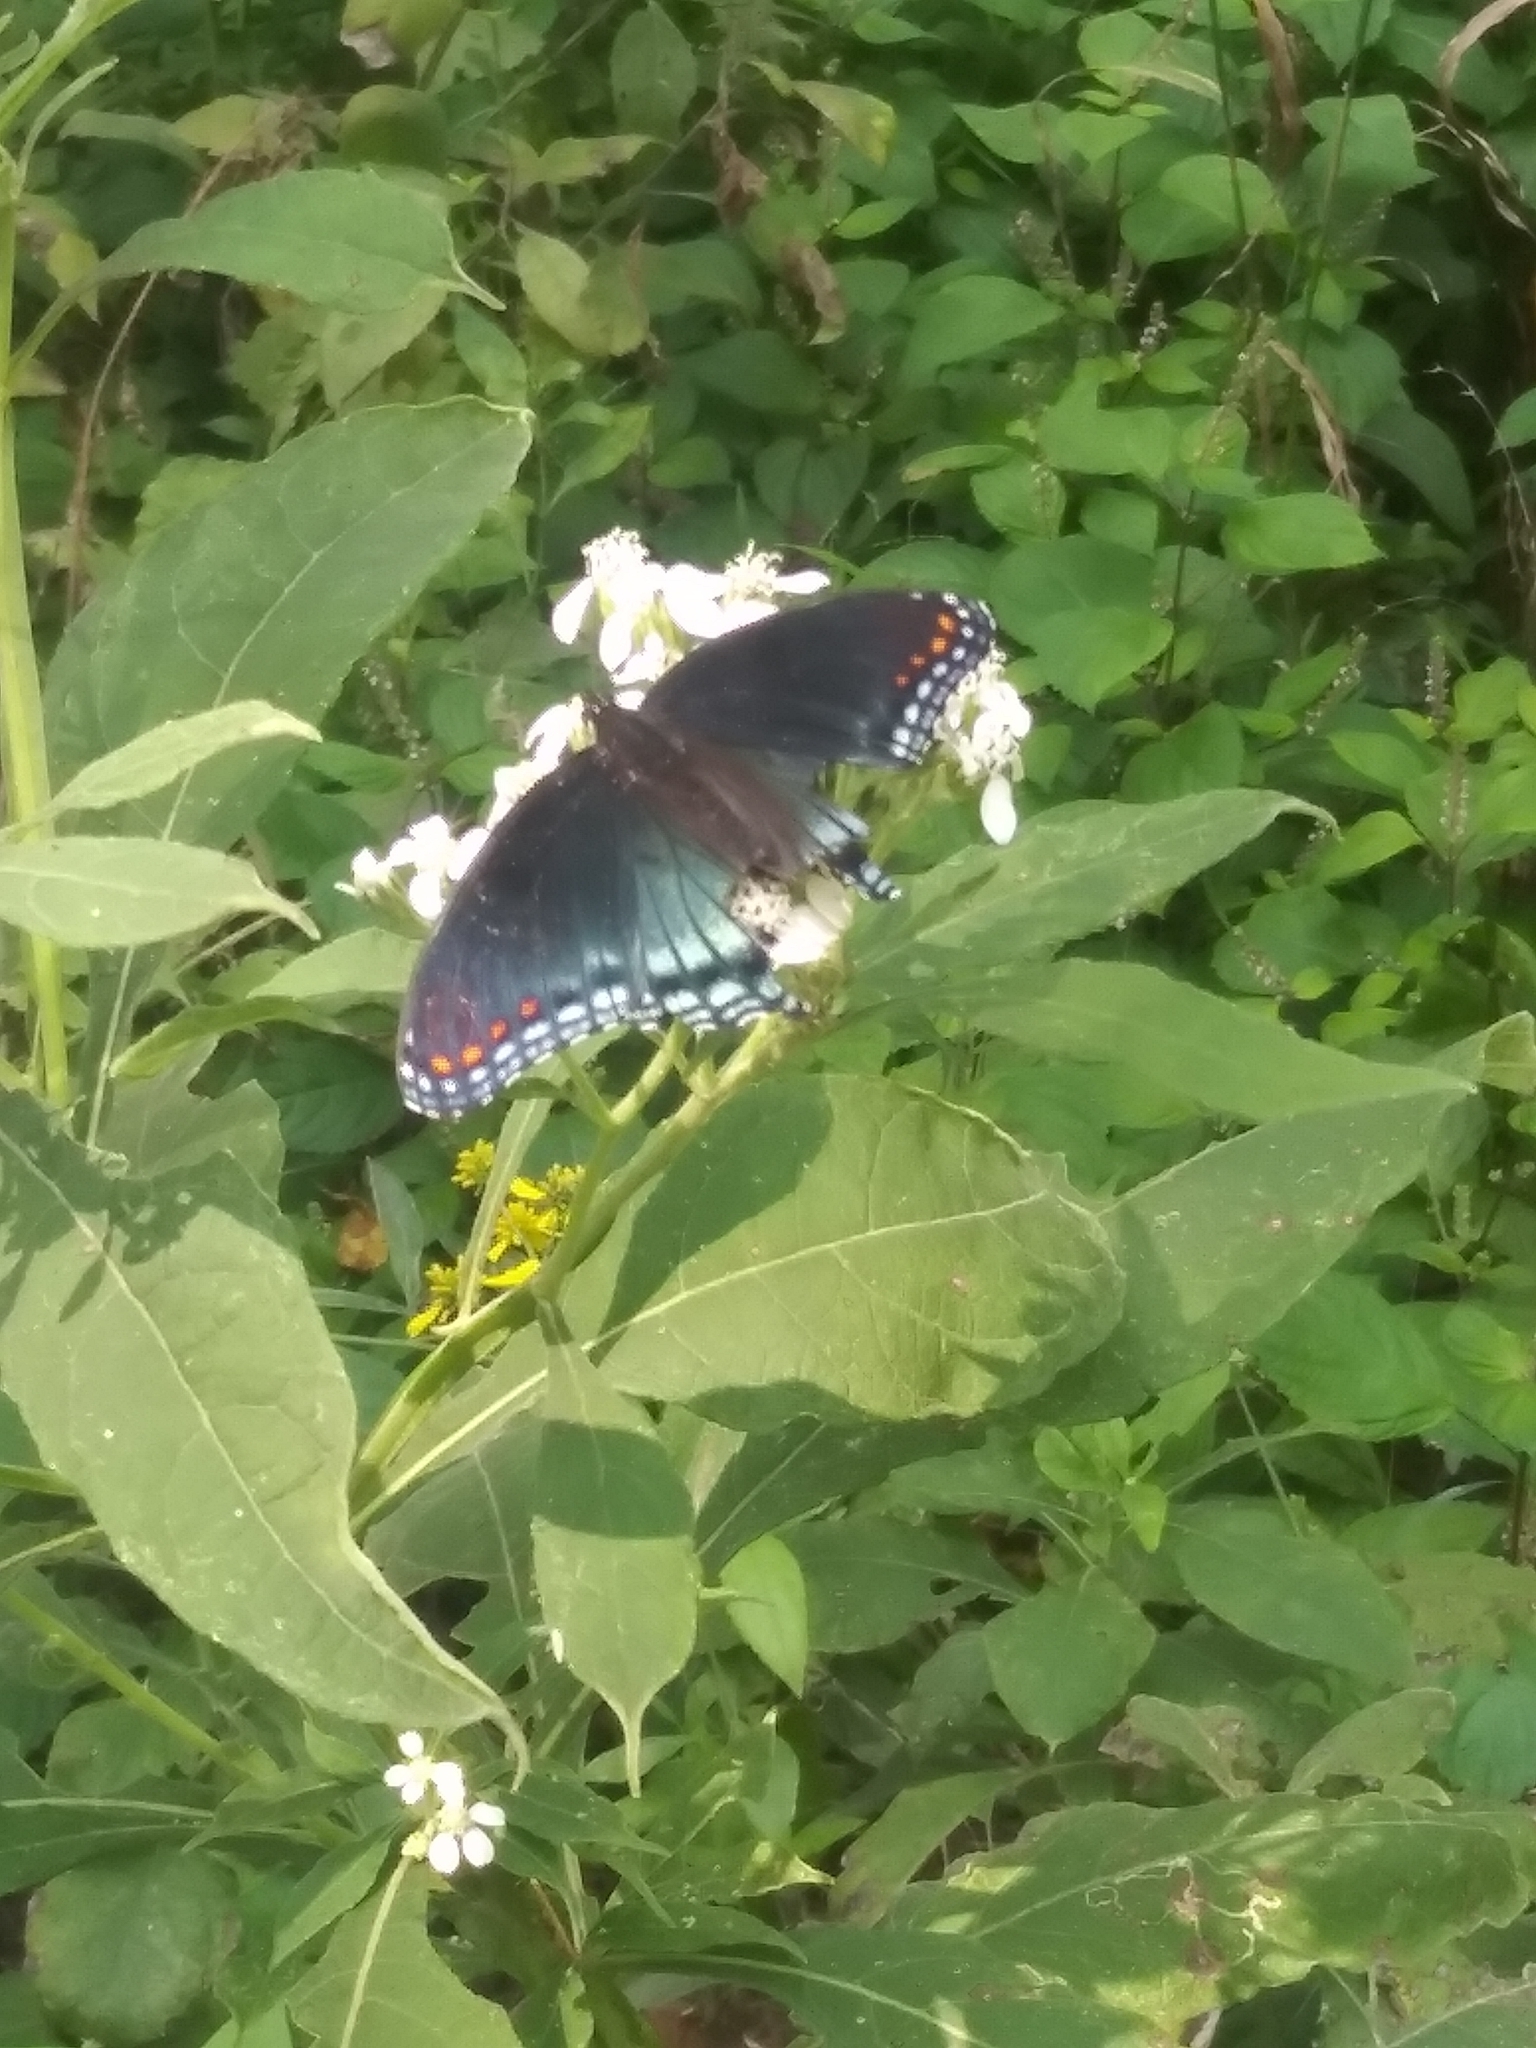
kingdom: Animalia
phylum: Arthropoda
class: Insecta
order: Lepidoptera
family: Nymphalidae
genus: Limenitis
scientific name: Limenitis astyanax
